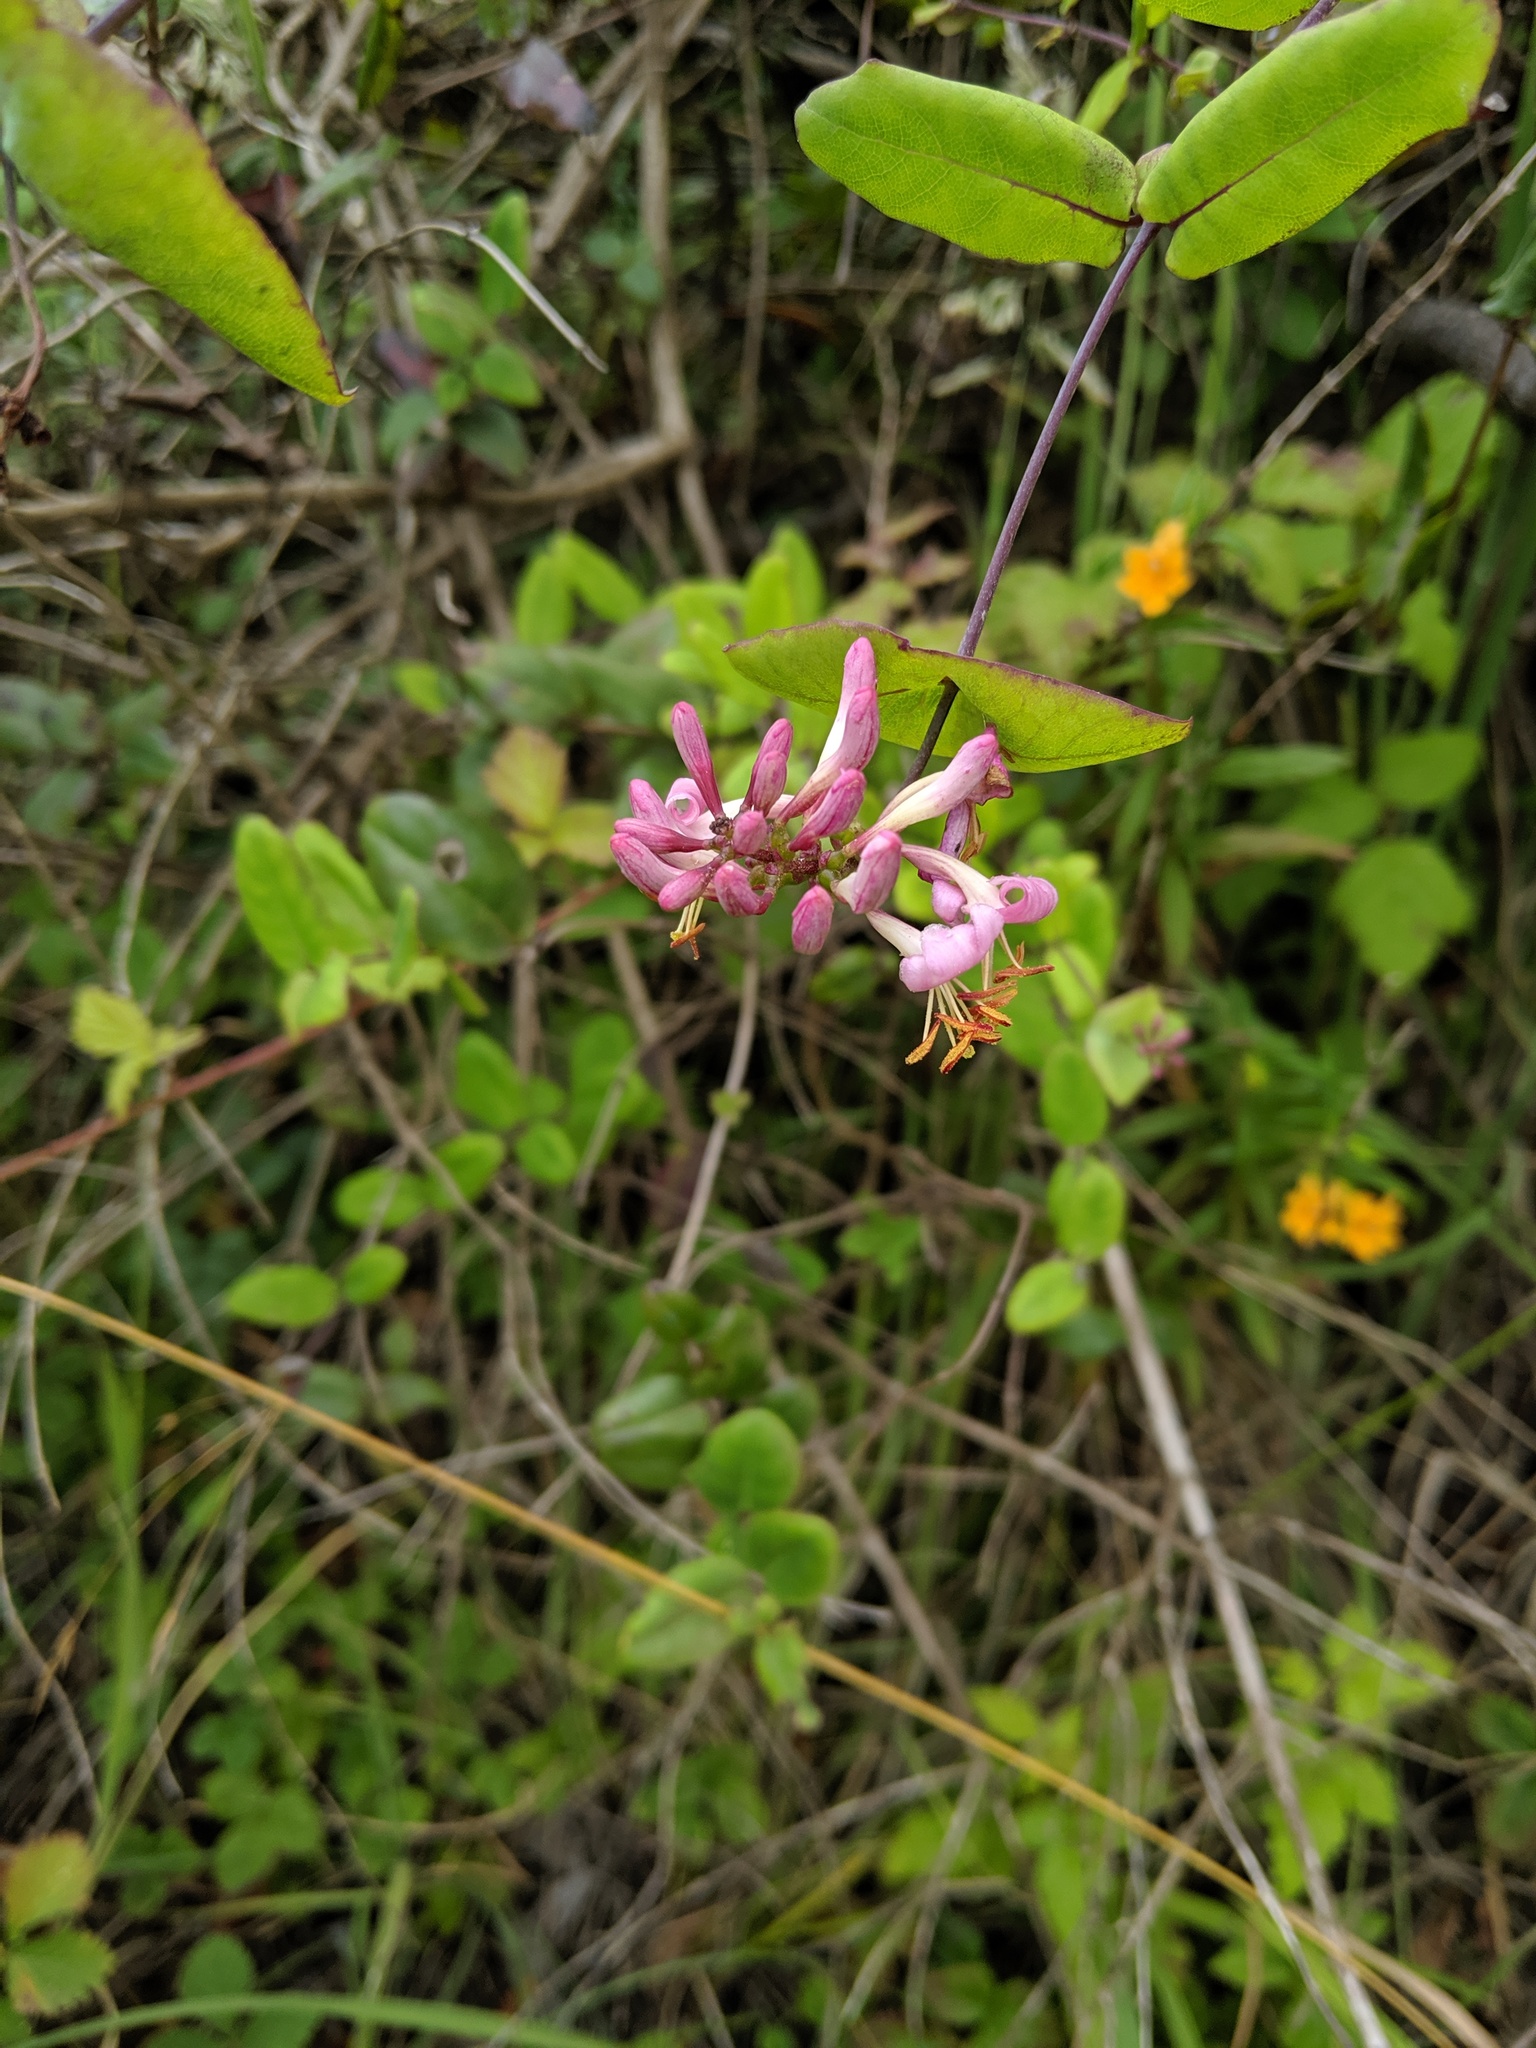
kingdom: Plantae
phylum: Tracheophyta
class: Magnoliopsida
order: Dipsacales
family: Caprifoliaceae
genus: Lonicera
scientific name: Lonicera hispidula
